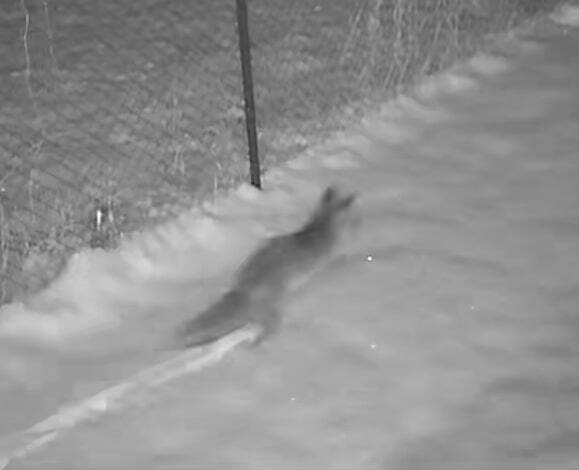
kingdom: Animalia
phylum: Chordata
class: Mammalia
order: Carnivora
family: Canidae
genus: Vulpes
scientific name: Vulpes vulpes
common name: Red fox
